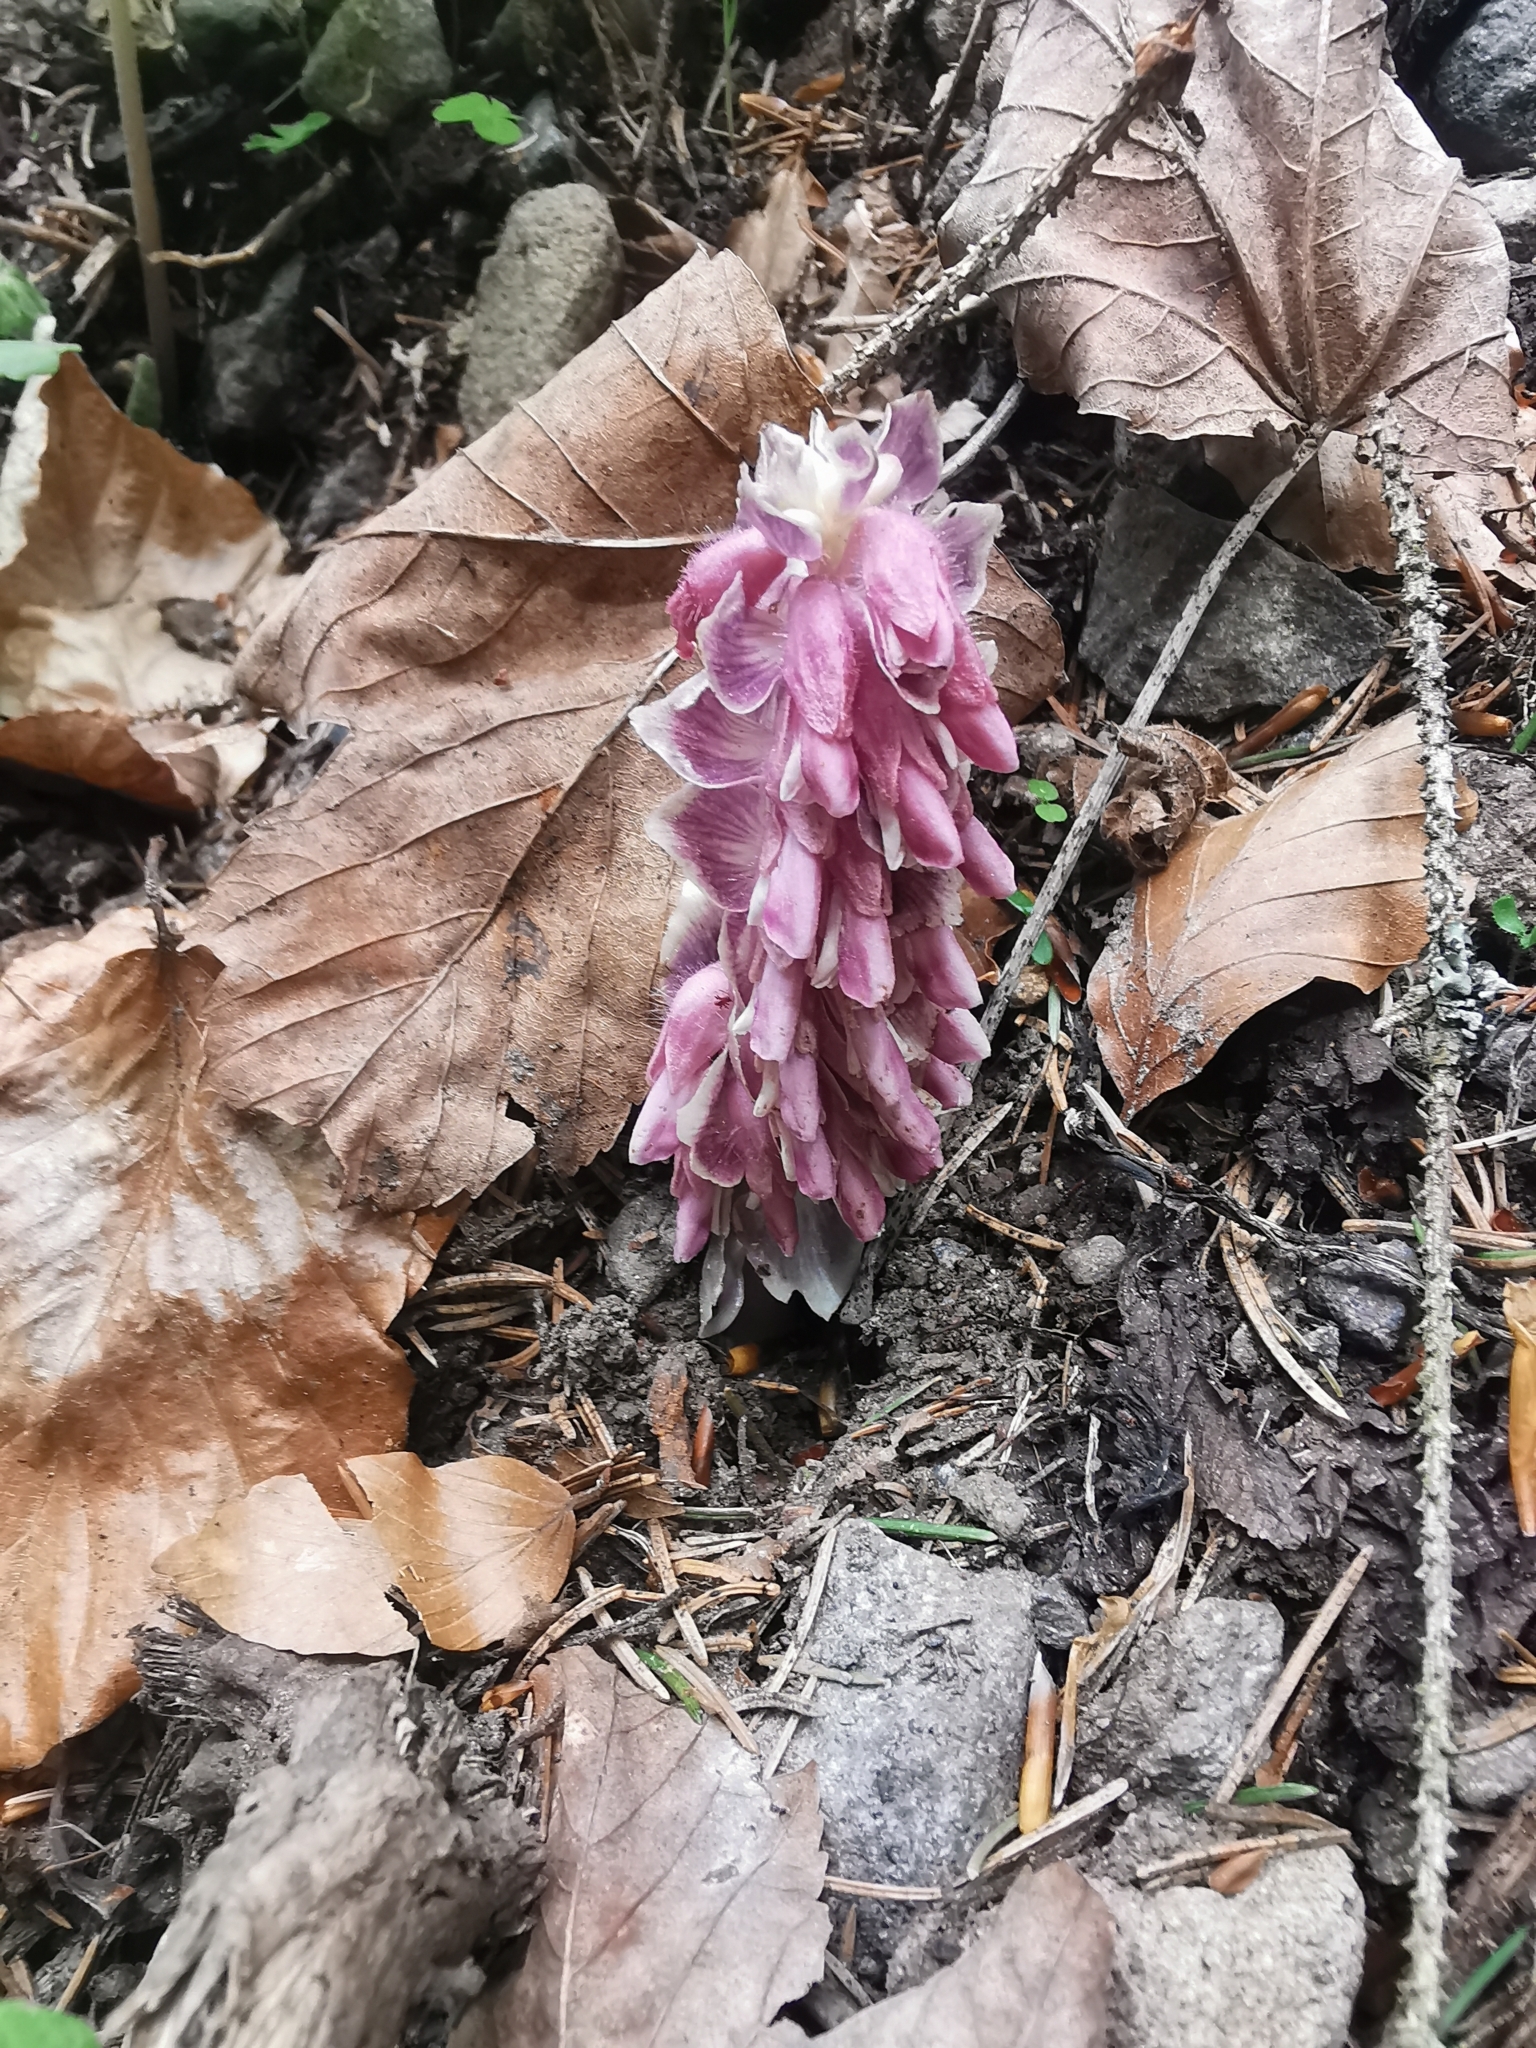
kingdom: Plantae
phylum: Tracheophyta
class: Magnoliopsida
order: Lamiales
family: Orobanchaceae
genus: Lathraea
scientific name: Lathraea squamaria
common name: Toothwort
